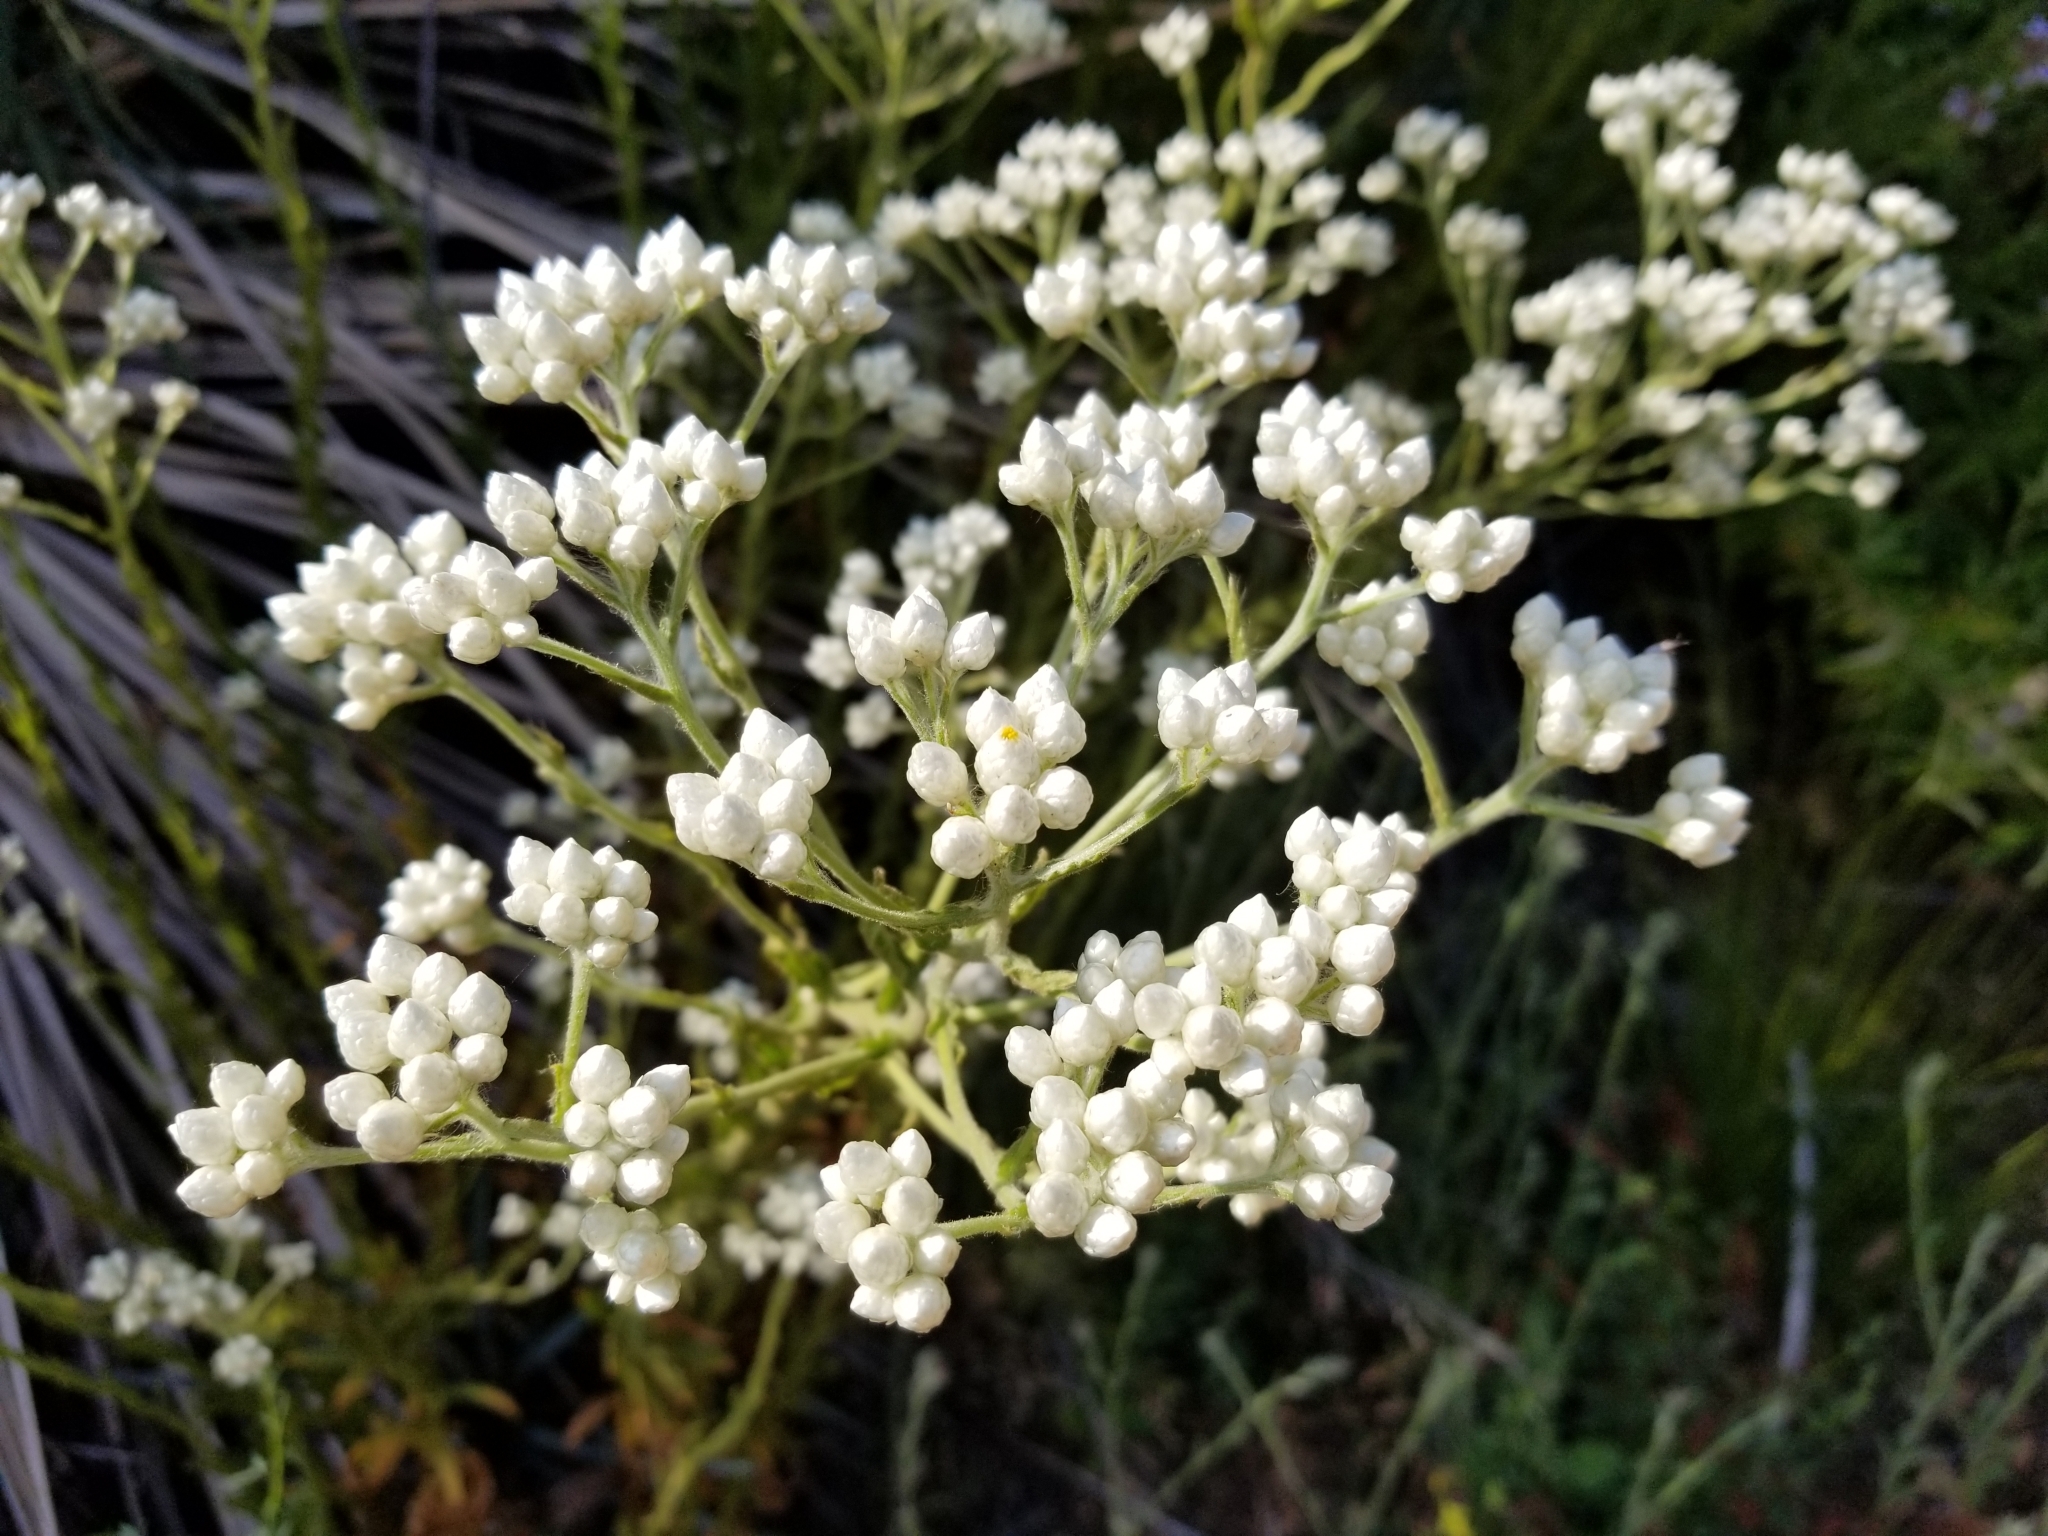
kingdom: Plantae
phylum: Tracheophyta
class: Magnoliopsida
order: Asterales
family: Asteraceae
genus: Pseudognaphalium
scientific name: Pseudognaphalium californicum
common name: California rabbit-tobacco
